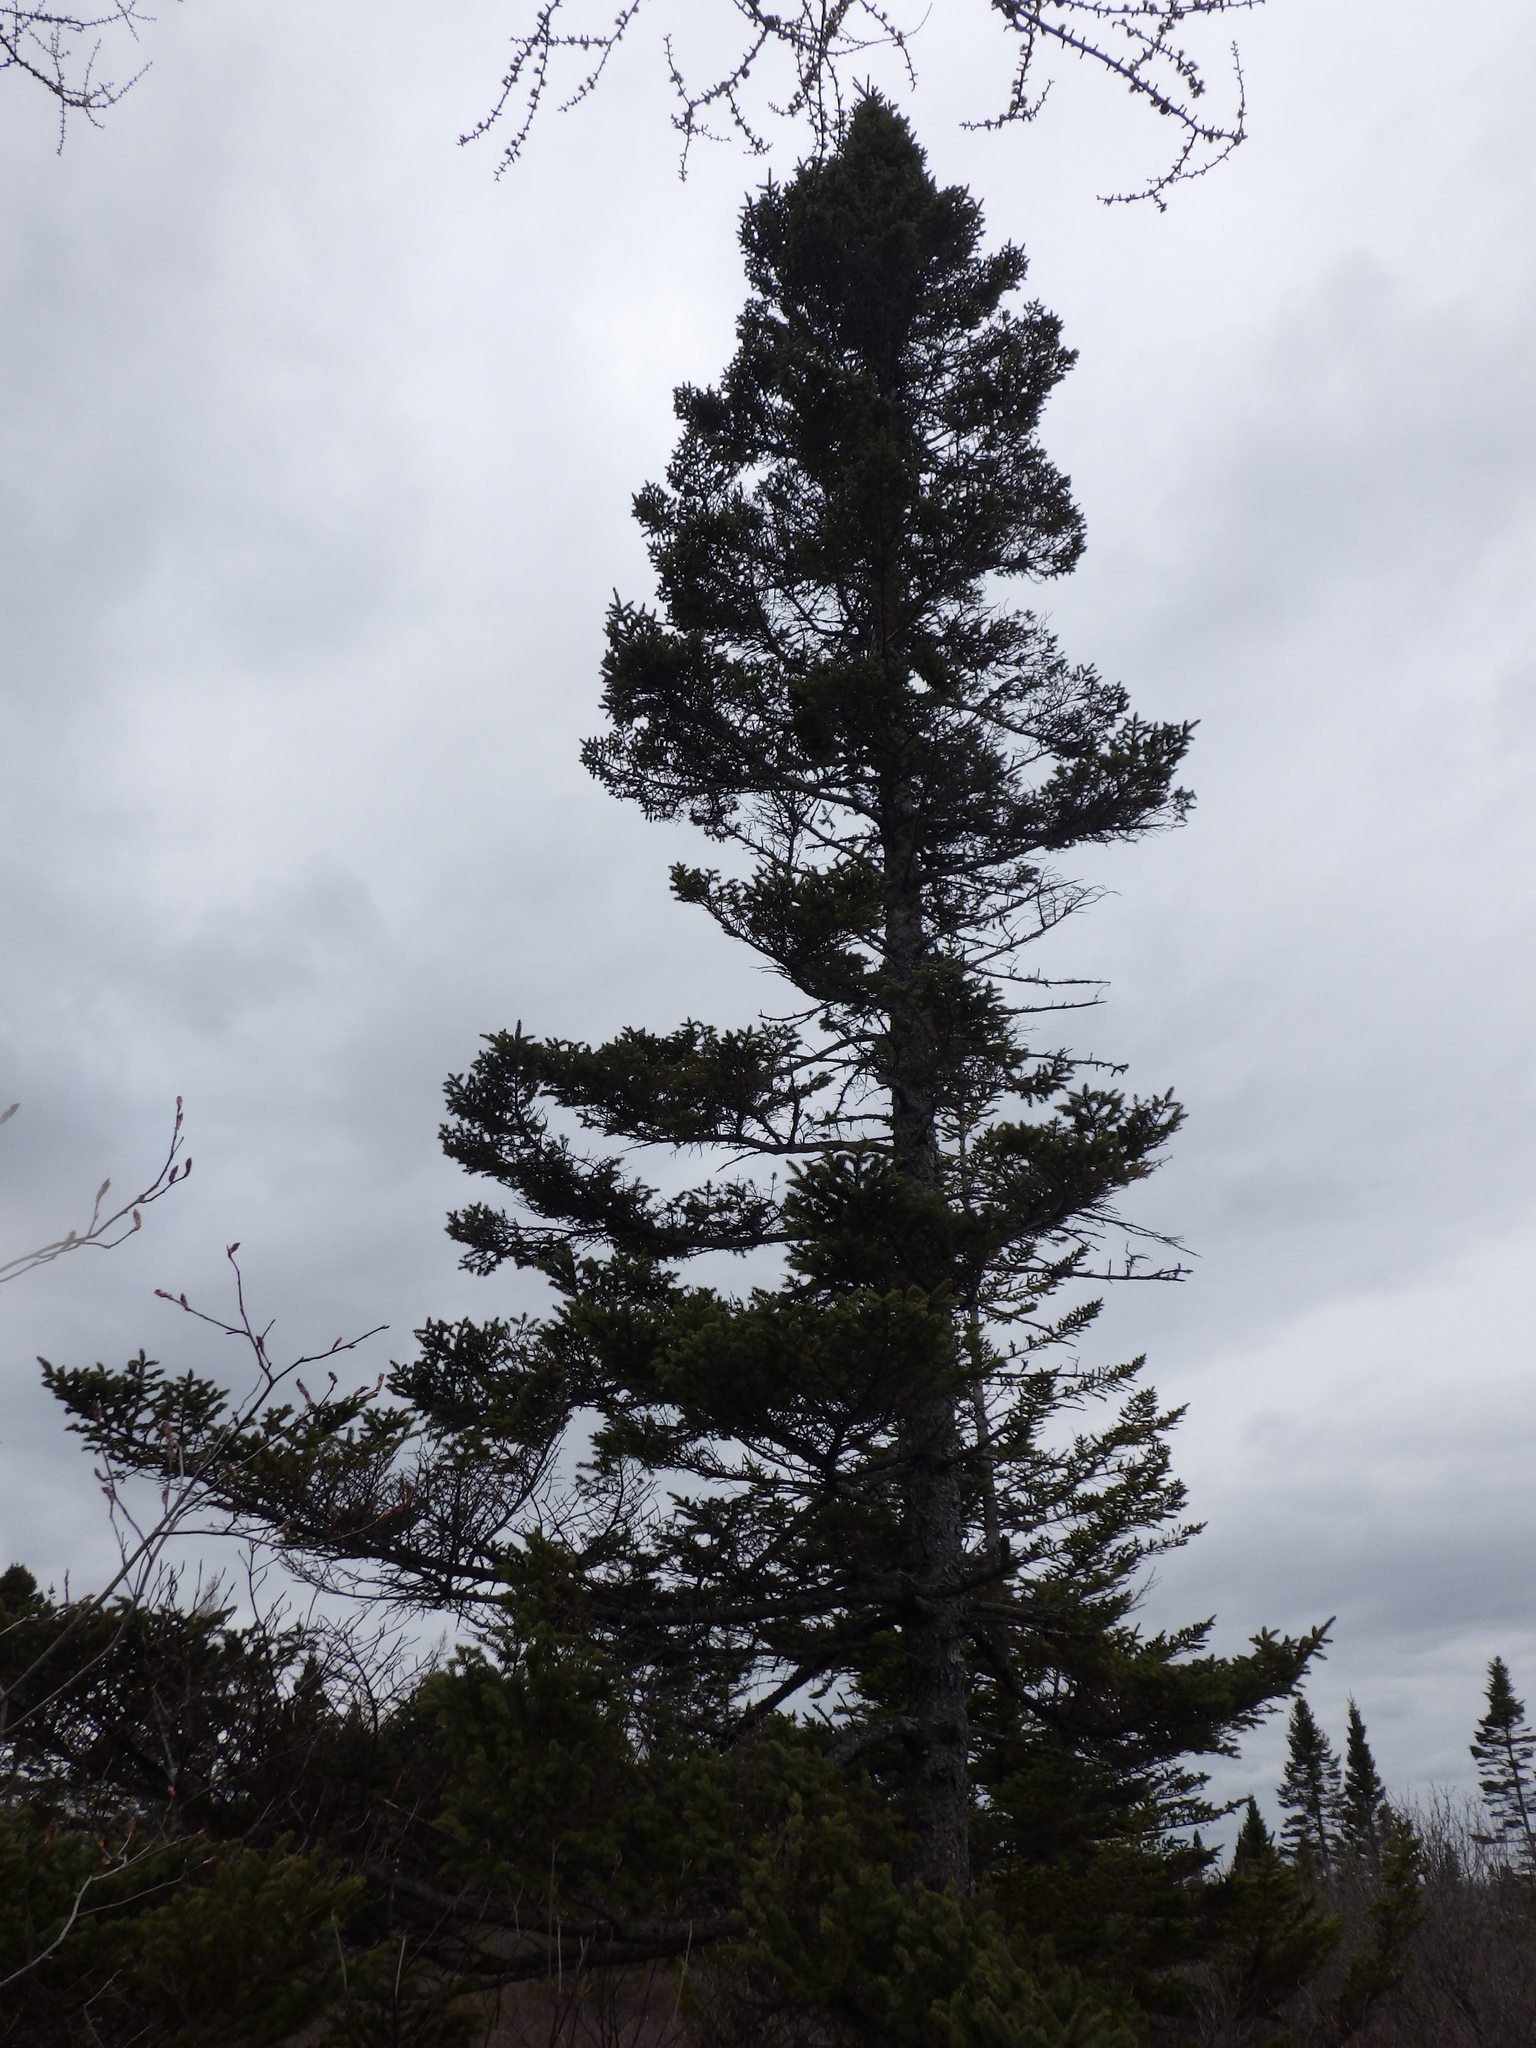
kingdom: Plantae
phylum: Tracheophyta
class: Pinopsida
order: Pinales
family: Pinaceae
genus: Picea
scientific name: Picea mariana
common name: Black spruce
